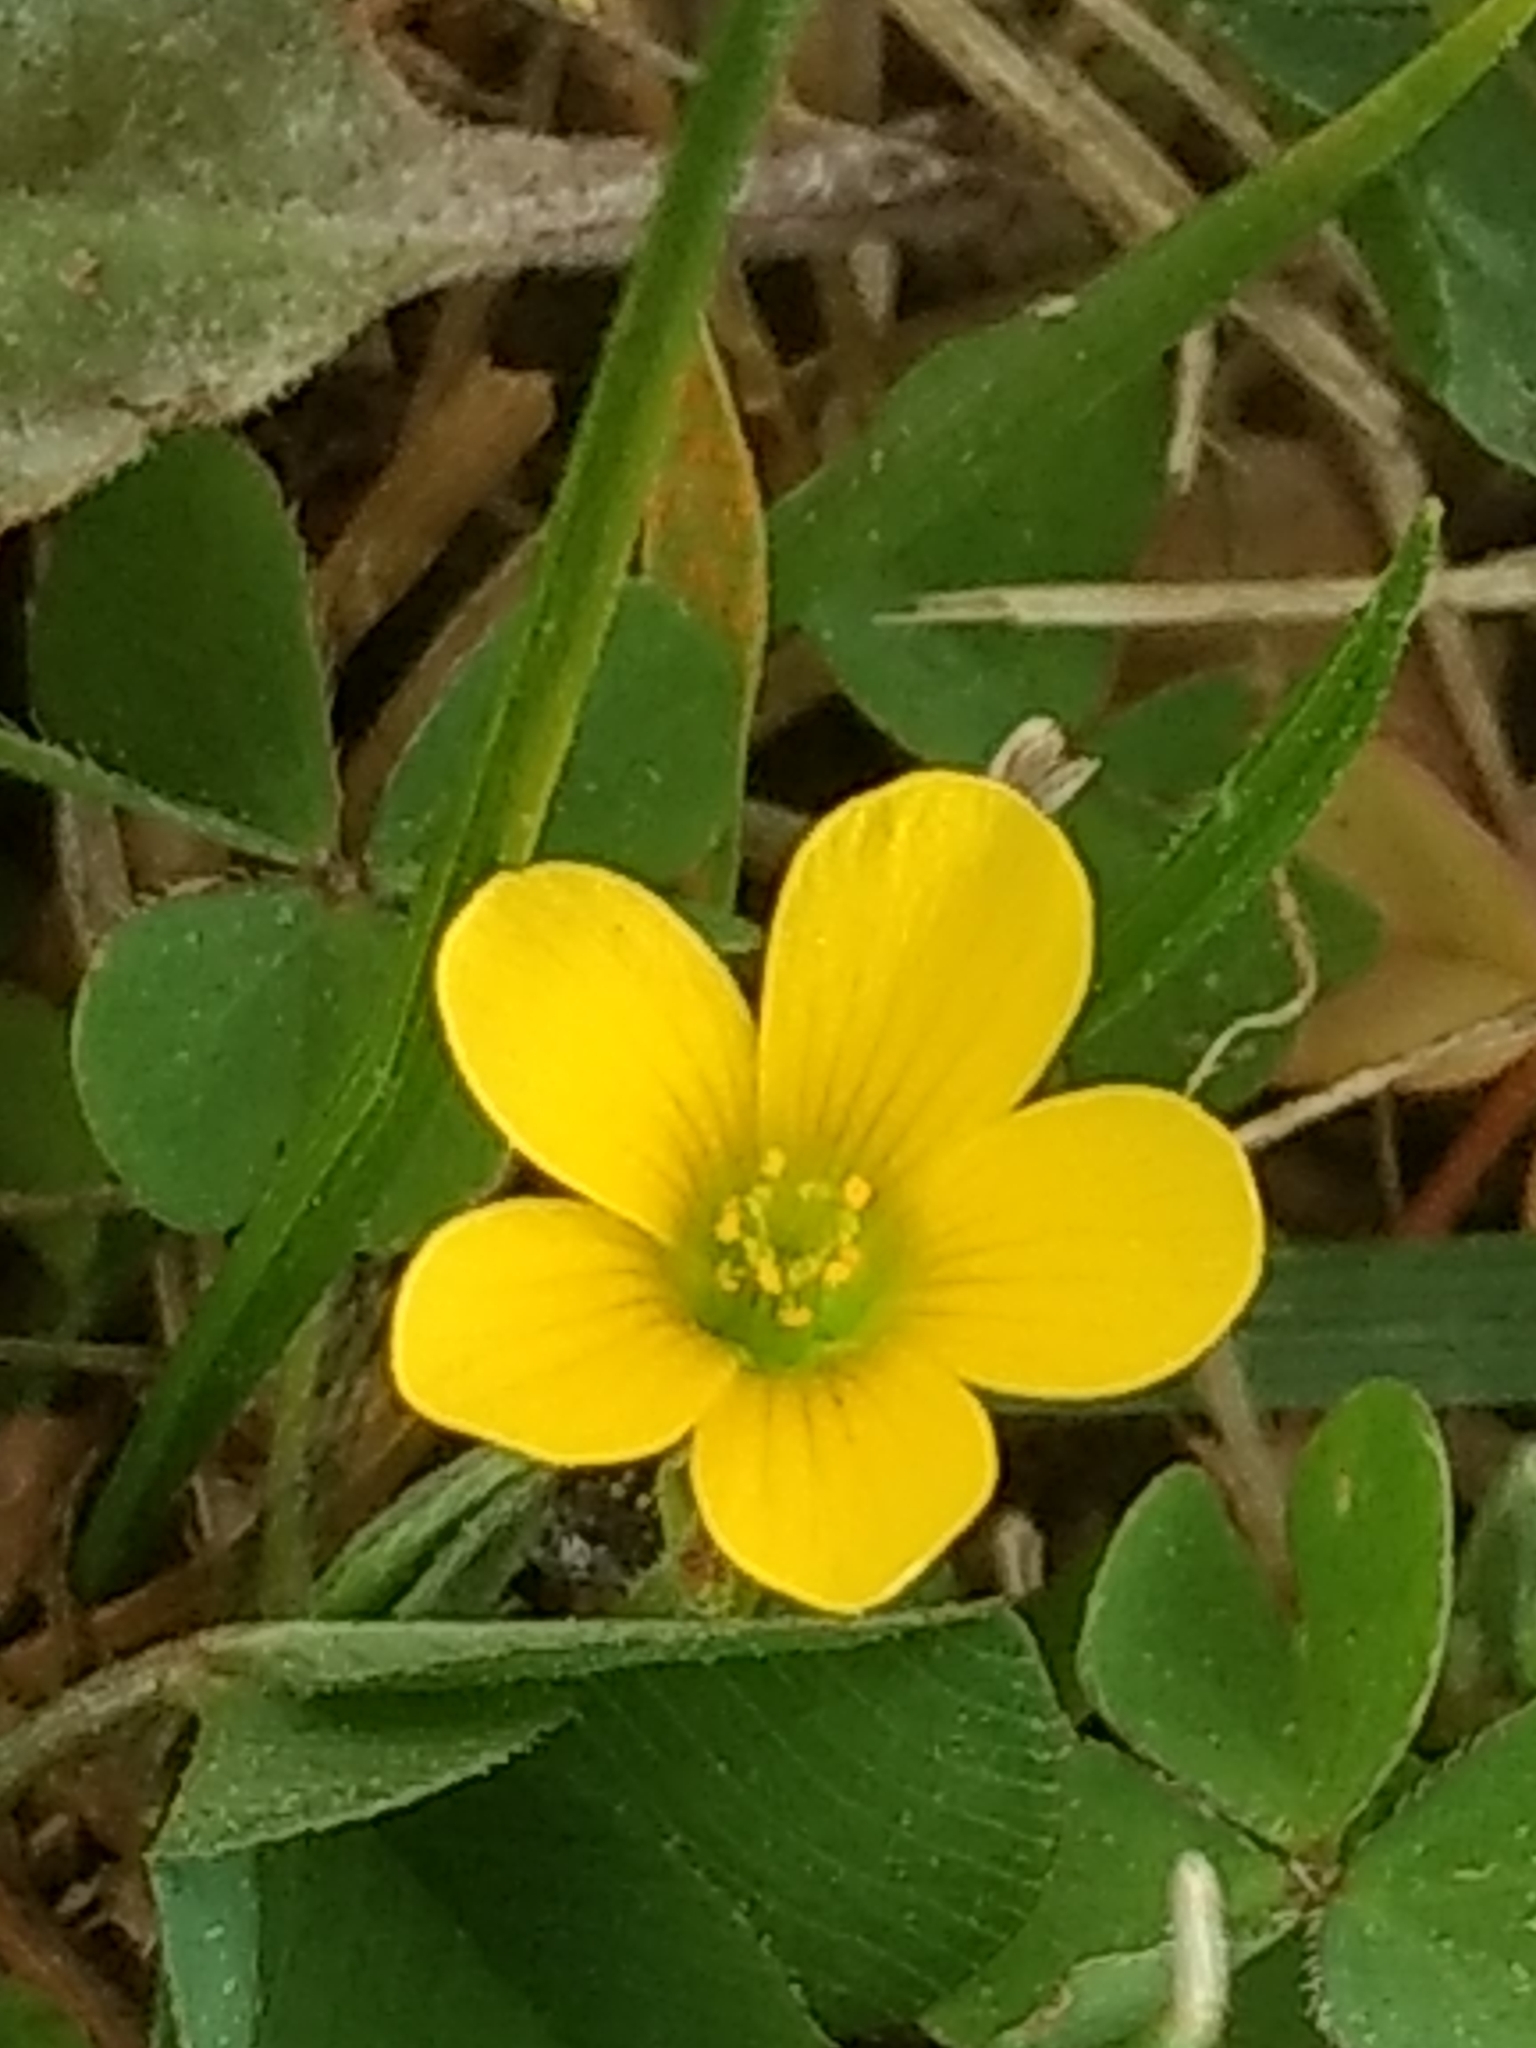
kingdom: Plantae
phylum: Tracheophyta
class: Magnoliopsida
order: Oxalidales
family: Oxalidaceae
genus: Oxalis
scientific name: Oxalis corniculata
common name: Procumbent yellow-sorrel
